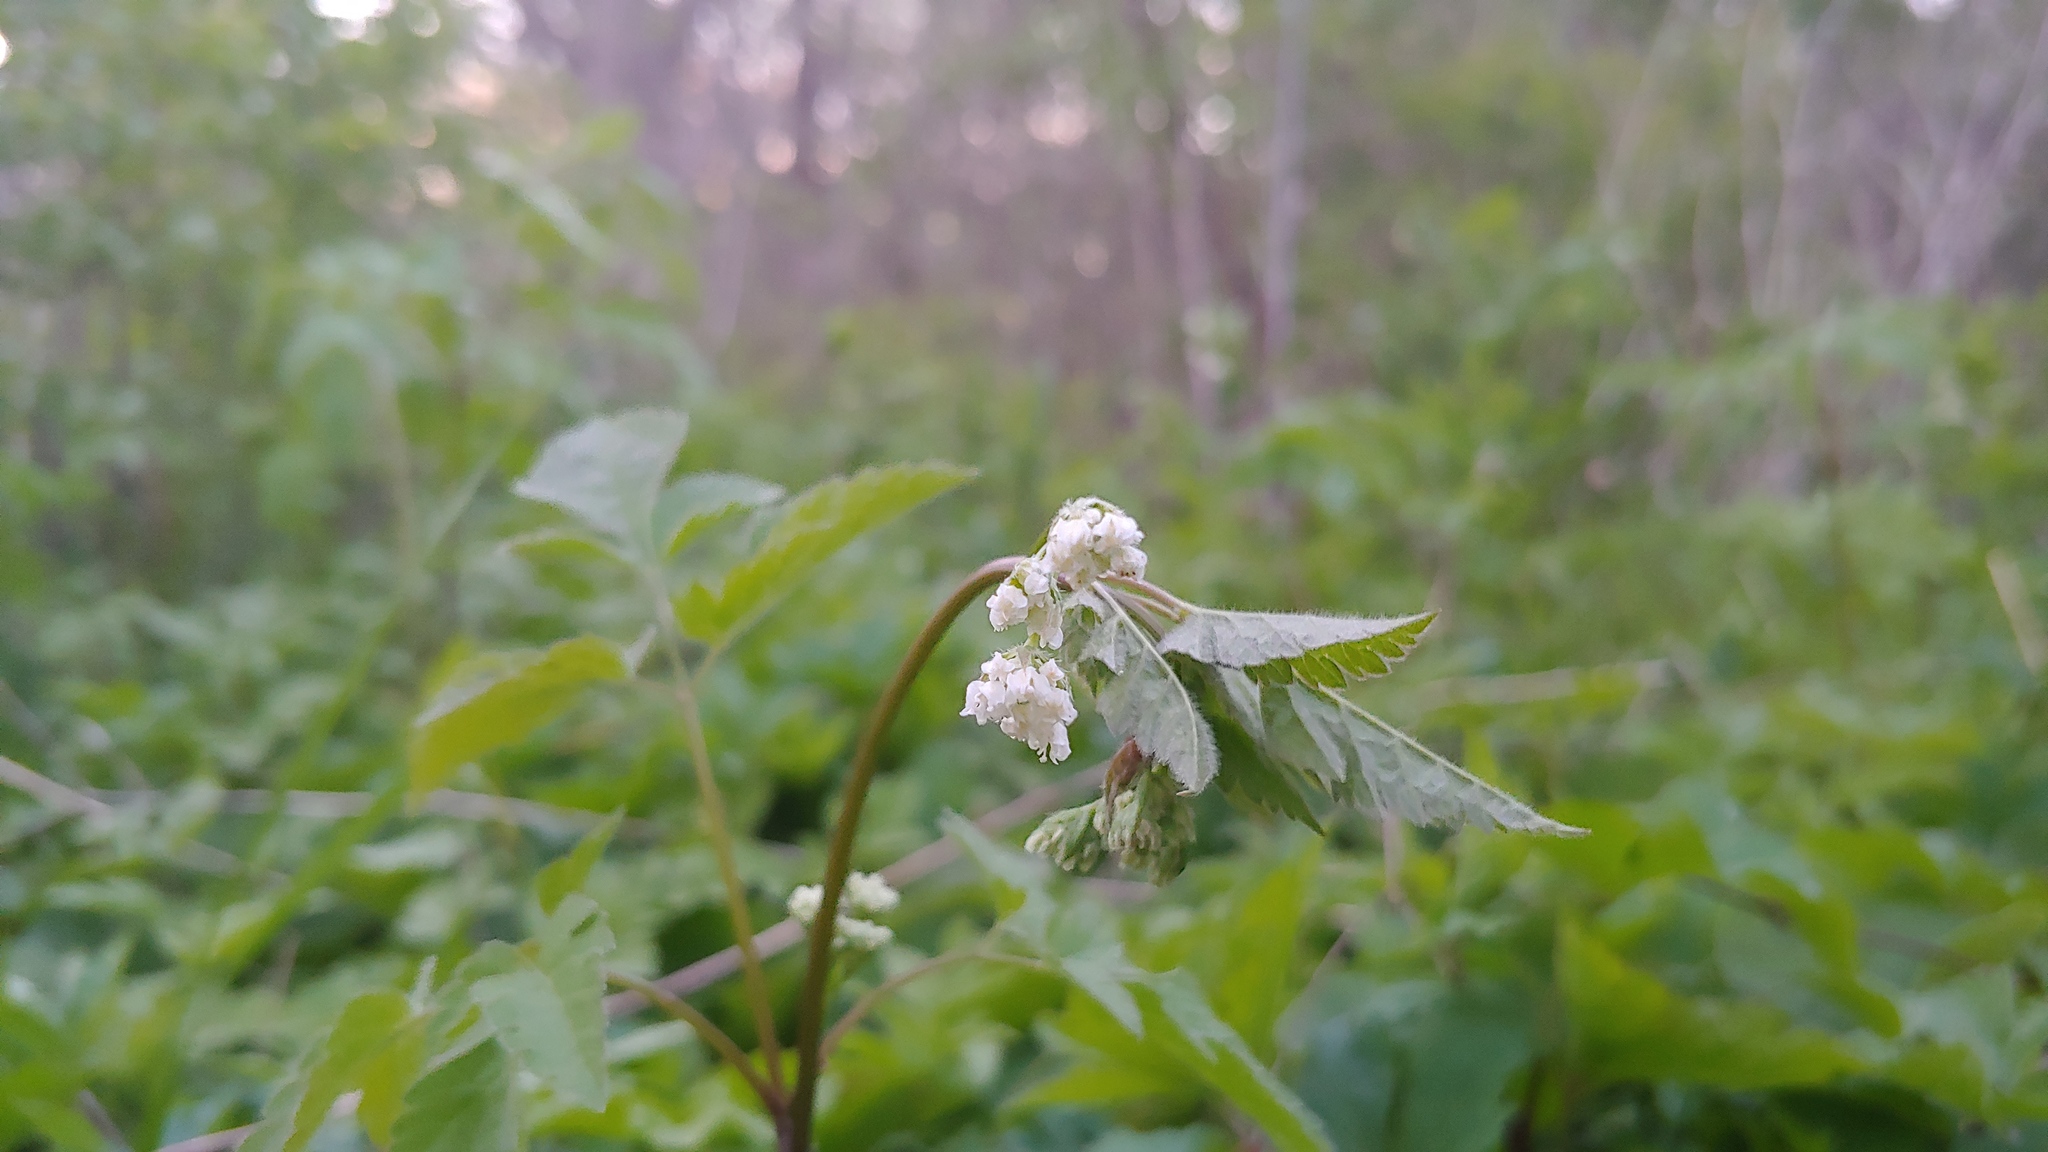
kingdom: Plantae
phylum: Tracheophyta
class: Magnoliopsida
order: Apiales
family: Apiaceae
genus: Osmorhiza
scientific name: Osmorhiza longistylis
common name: Smooth sweet cicely
